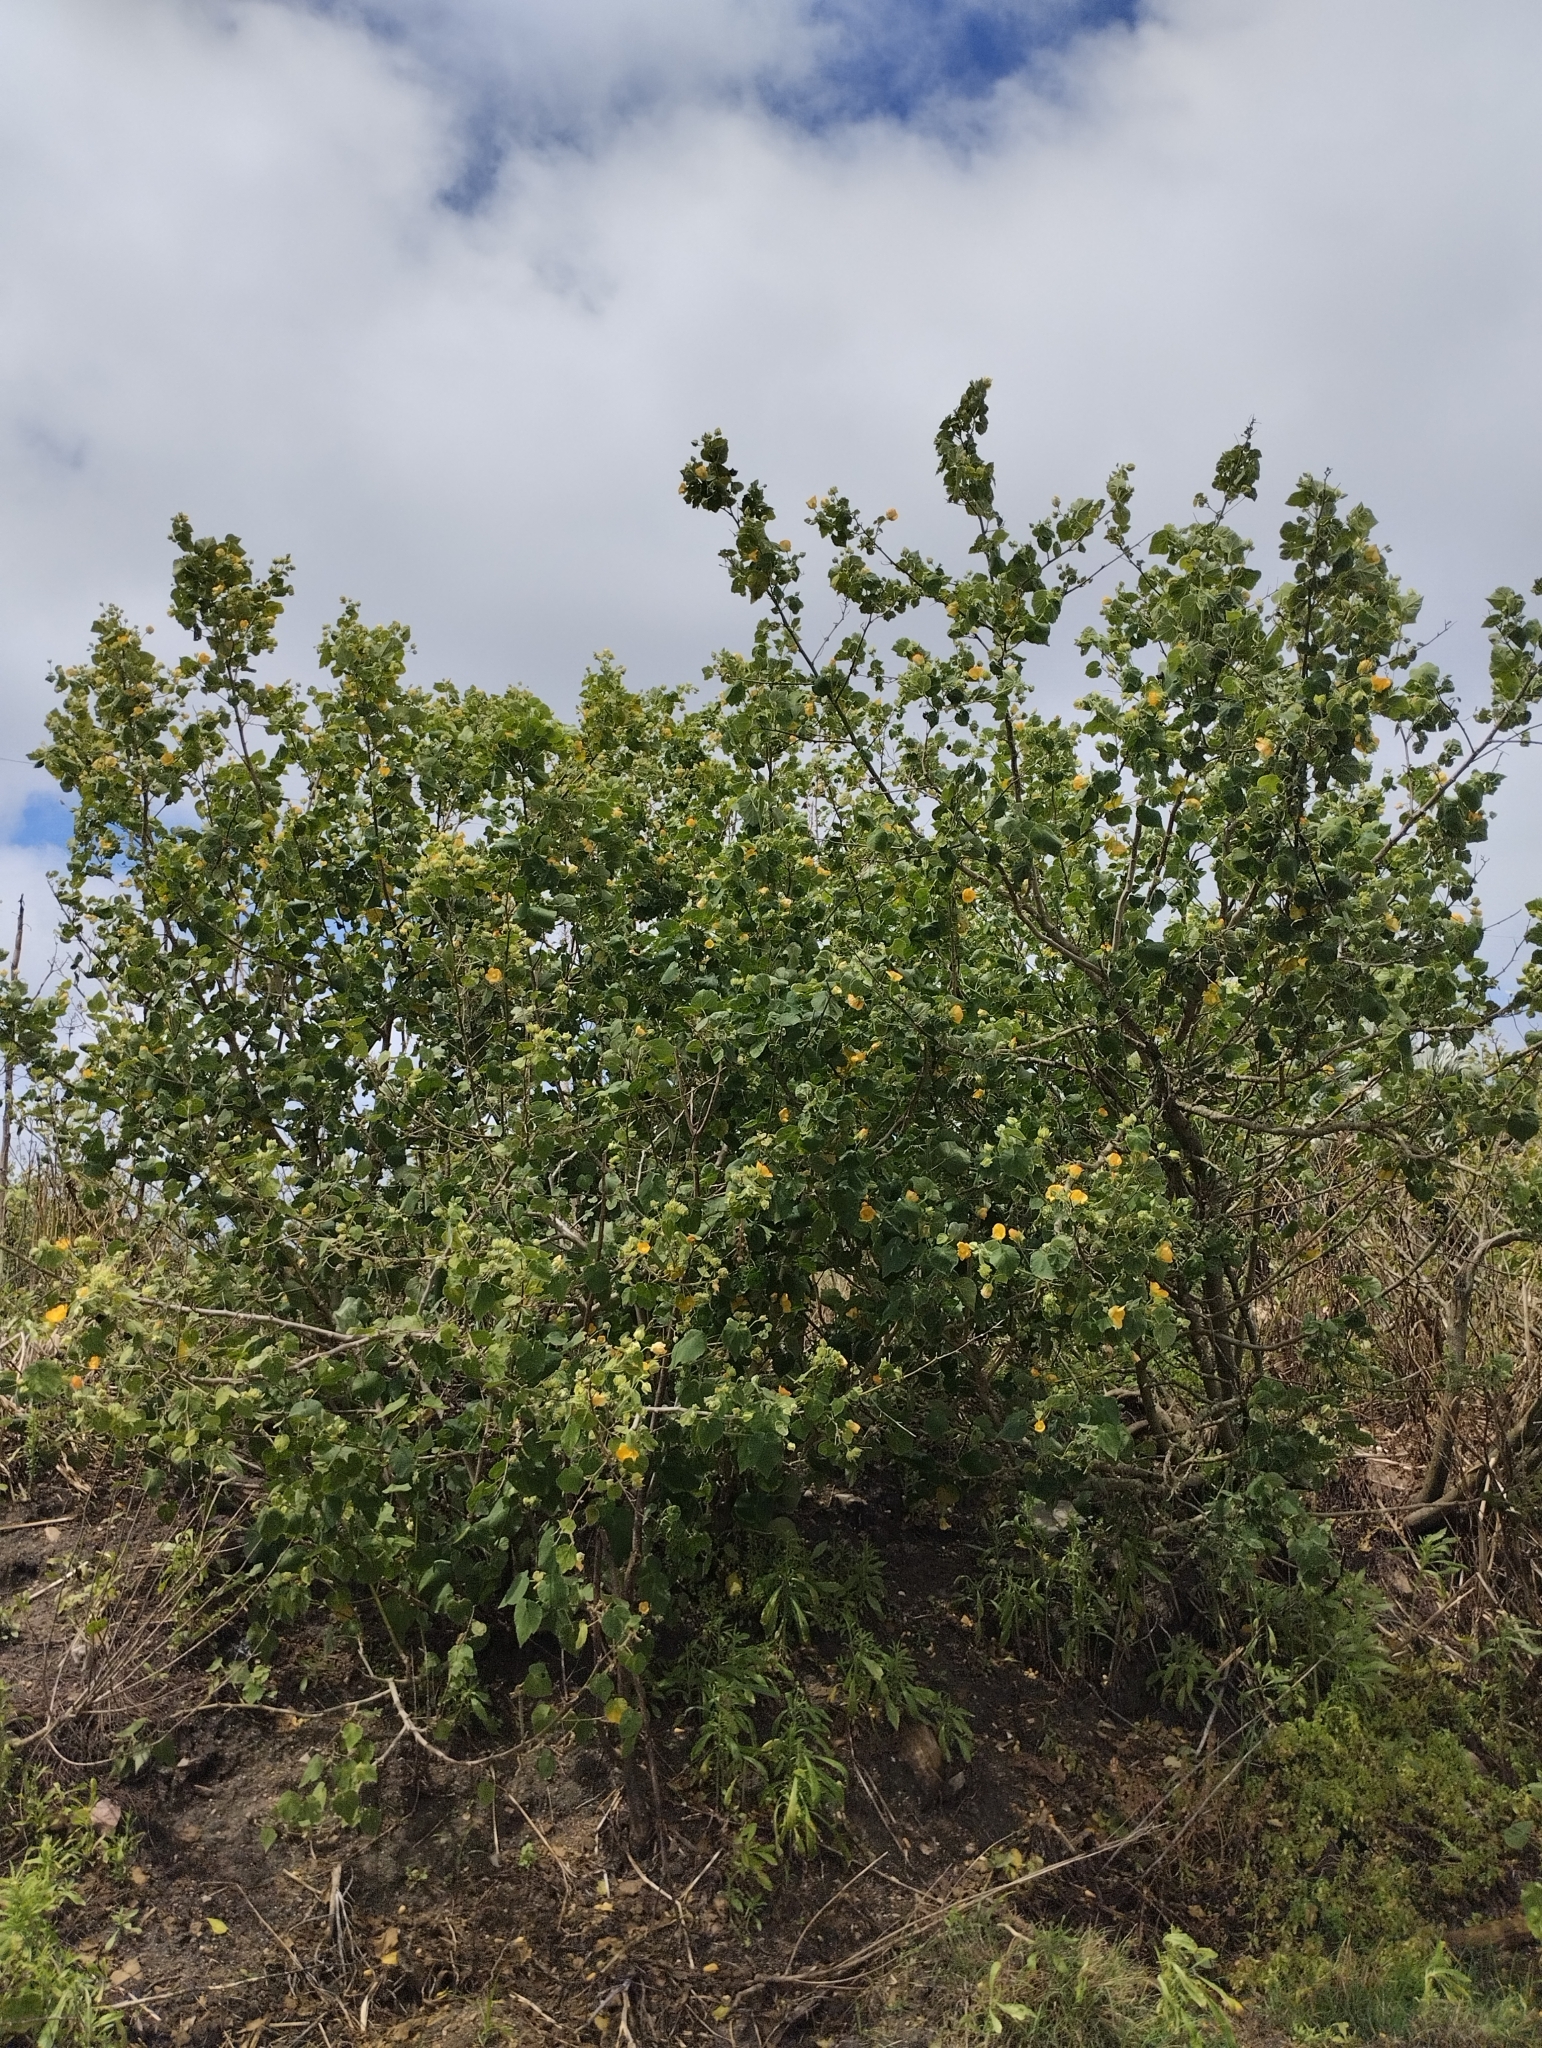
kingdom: Plantae
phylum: Tracheophyta
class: Magnoliopsida
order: Malvales
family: Malvaceae
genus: Abutilon
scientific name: Abutilon grandifolium
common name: Hairy abutilon
